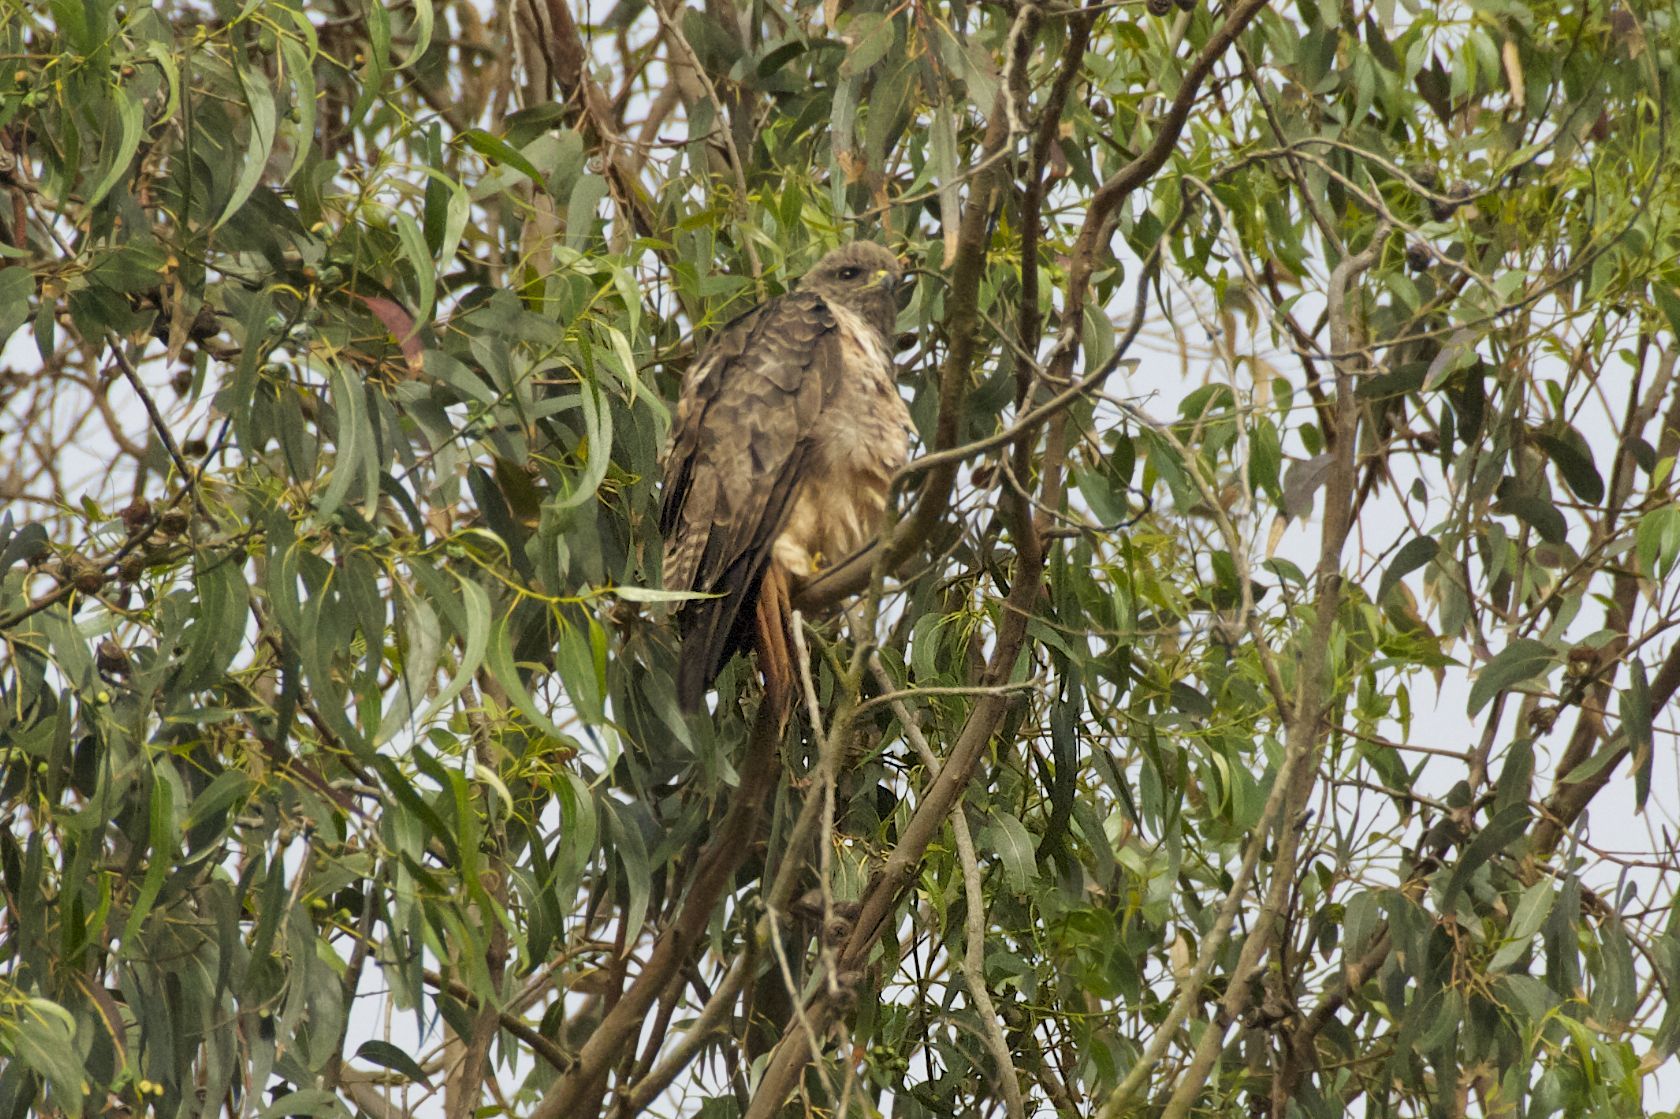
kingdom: Animalia
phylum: Chordata
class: Aves
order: Accipitriformes
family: Accipitridae
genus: Buteo
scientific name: Buteo jamaicensis
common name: Red-tailed hawk
